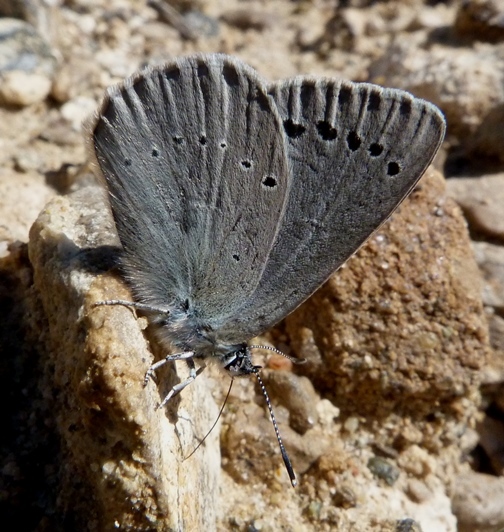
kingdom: Animalia
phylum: Arthropoda
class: Insecta
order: Lepidoptera
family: Lycaenidae
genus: Iolana
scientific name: Iolana debilitata
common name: Iolas blue
